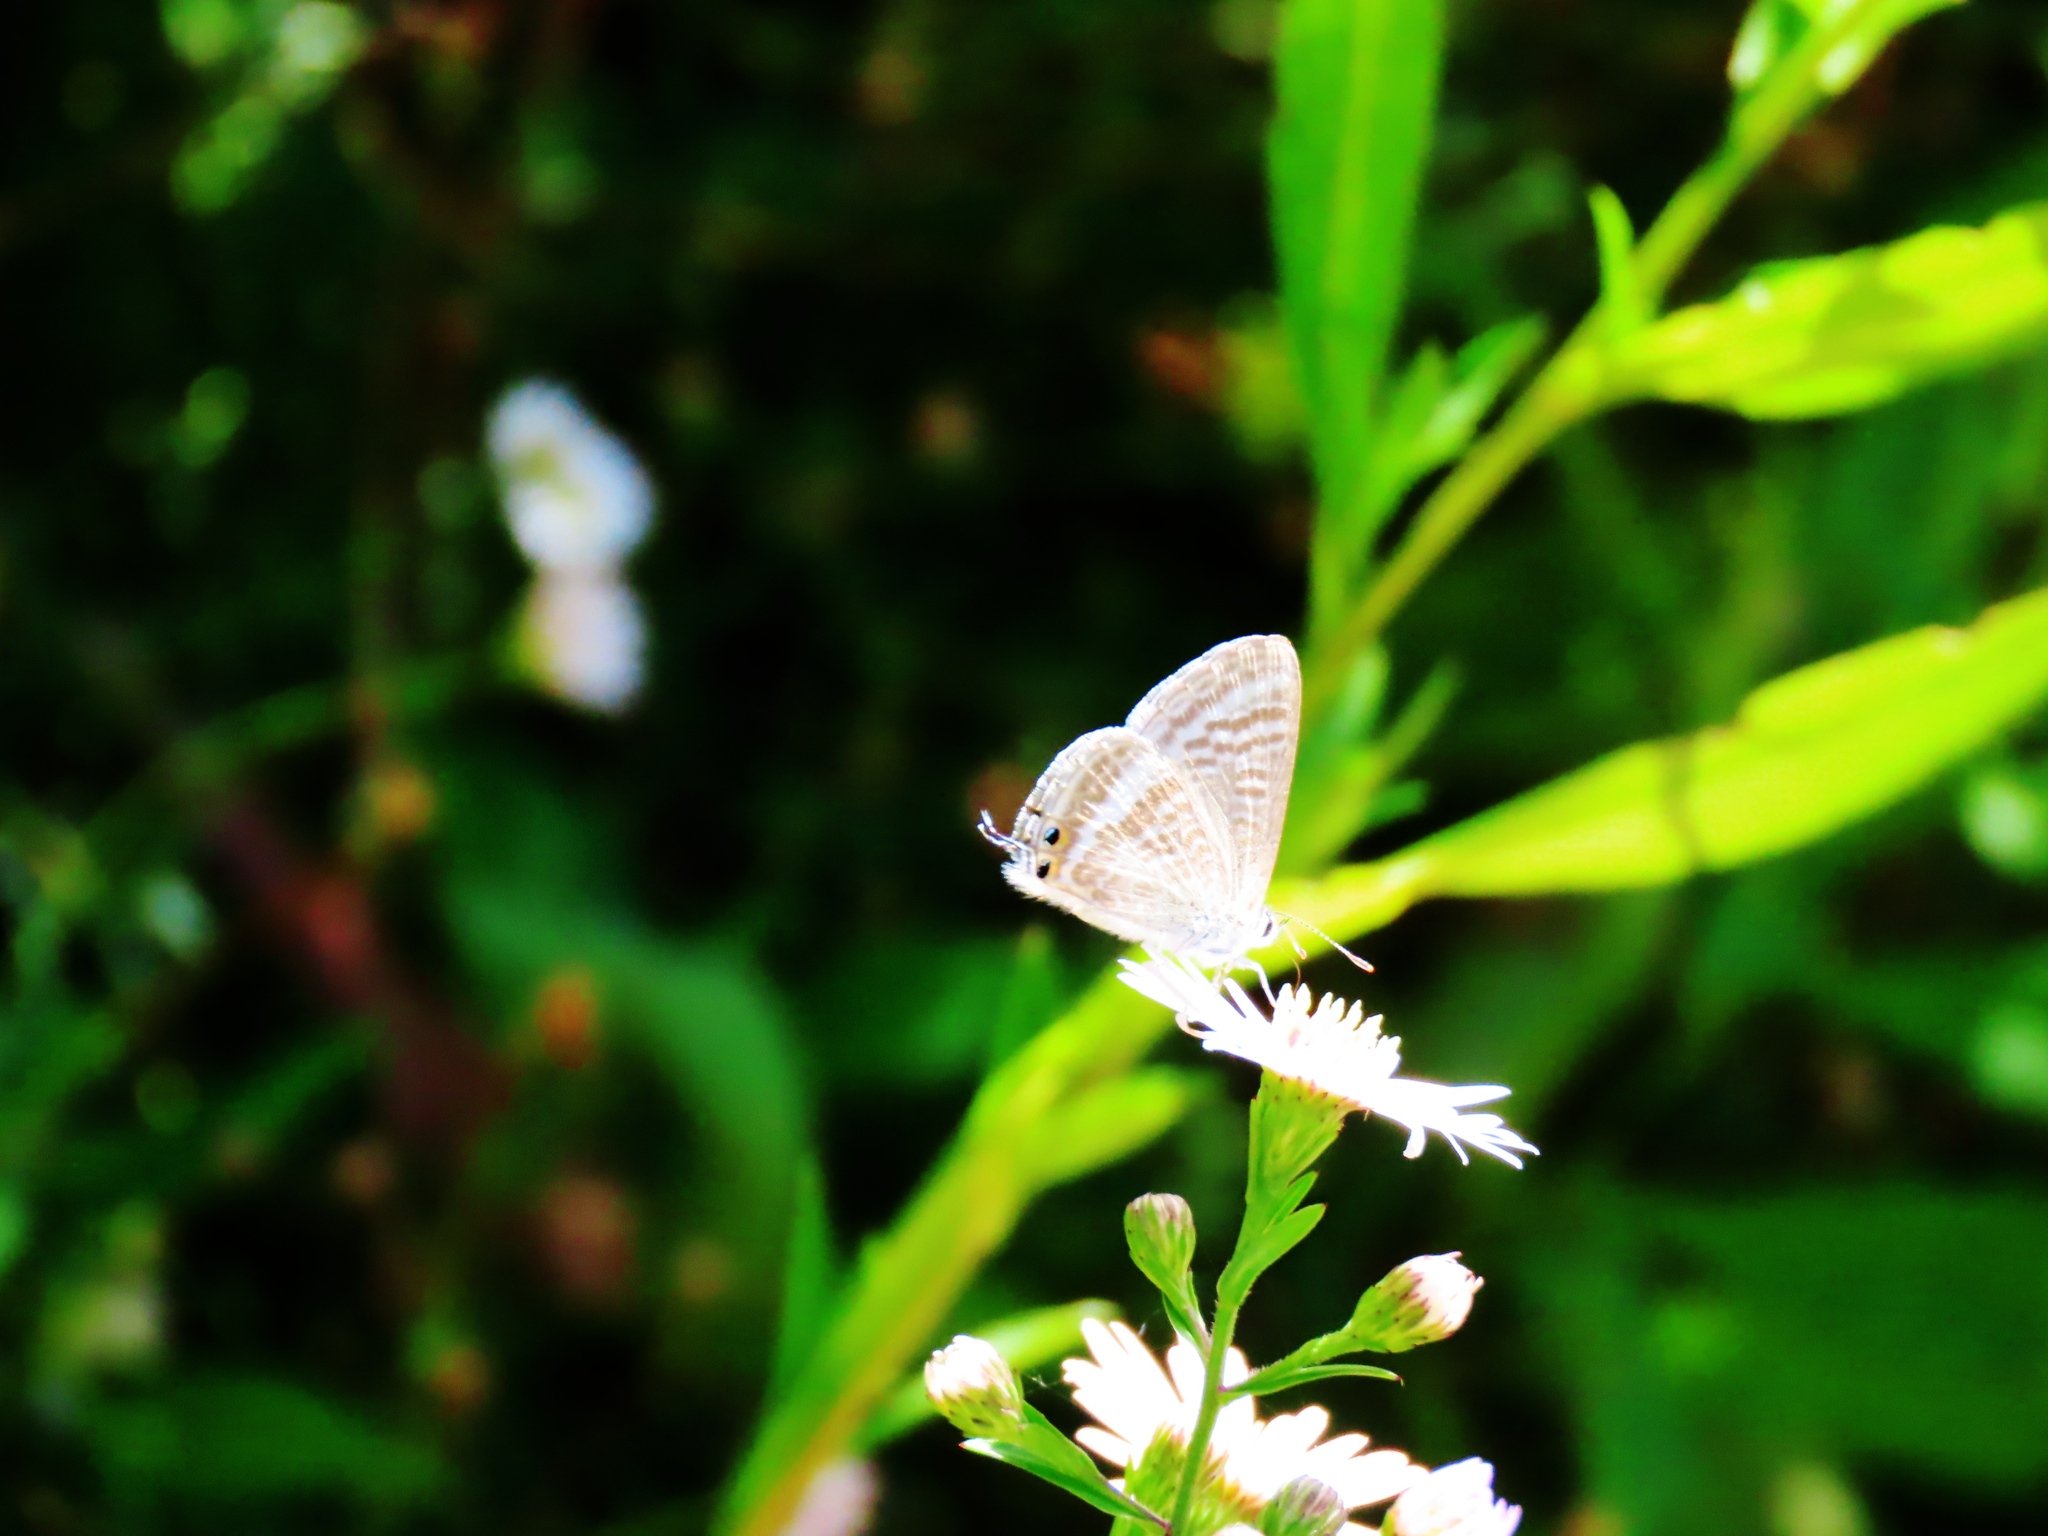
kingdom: Animalia
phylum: Arthropoda
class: Insecta
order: Lepidoptera
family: Lycaenidae
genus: Lampides
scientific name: Lampides boeticus
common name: Long-tailed blue
